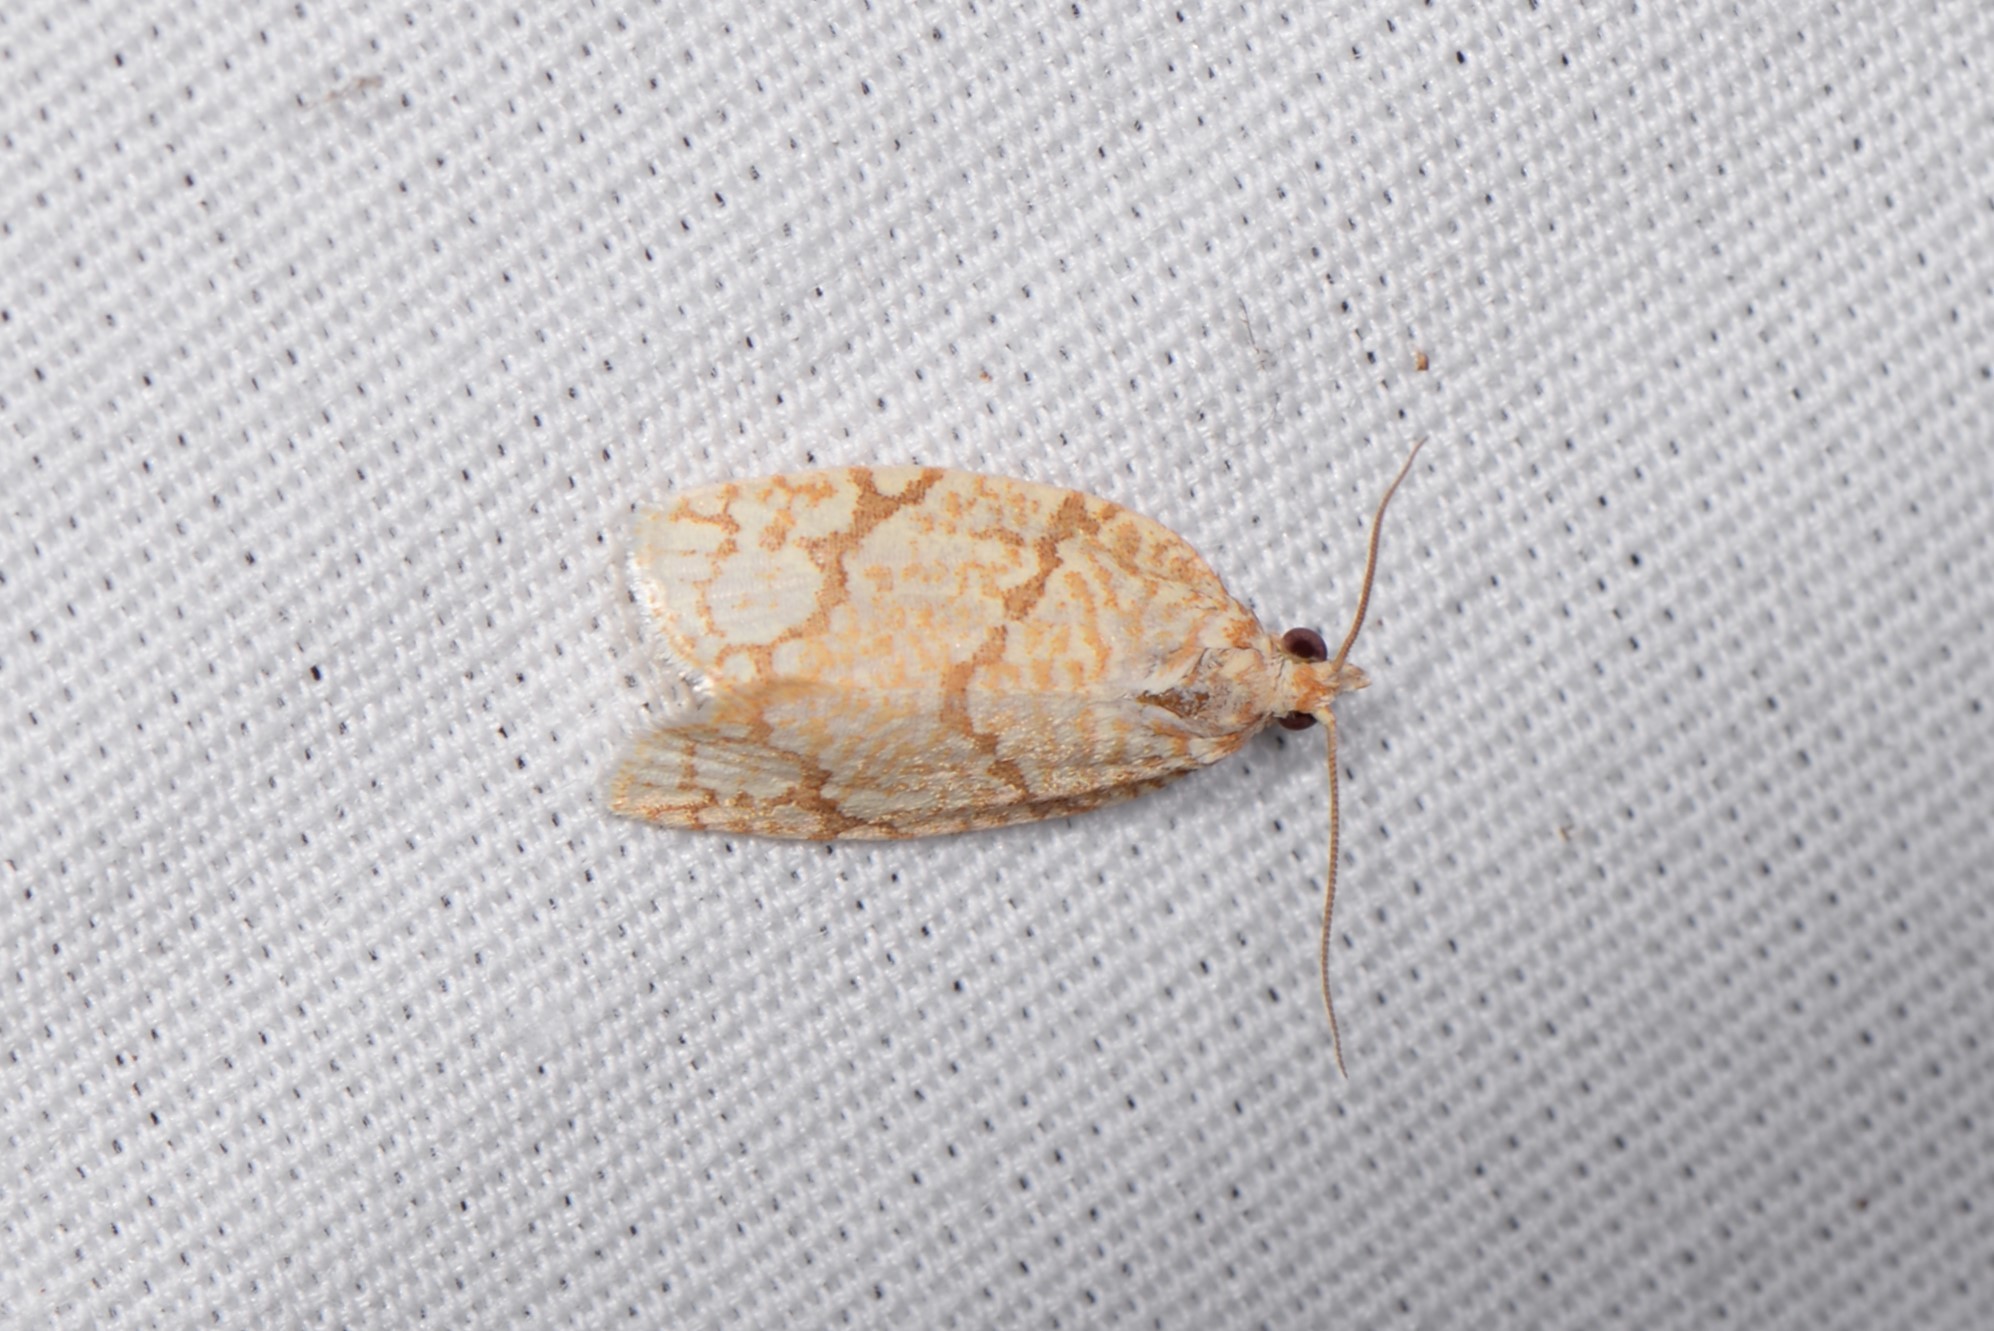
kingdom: Animalia
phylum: Arthropoda
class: Insecta
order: Lepidoptera
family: Tortricidae
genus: Argyrotaenia
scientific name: Argyrotaenia quercifoliana
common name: Yellow-winged oak leafroller moth
